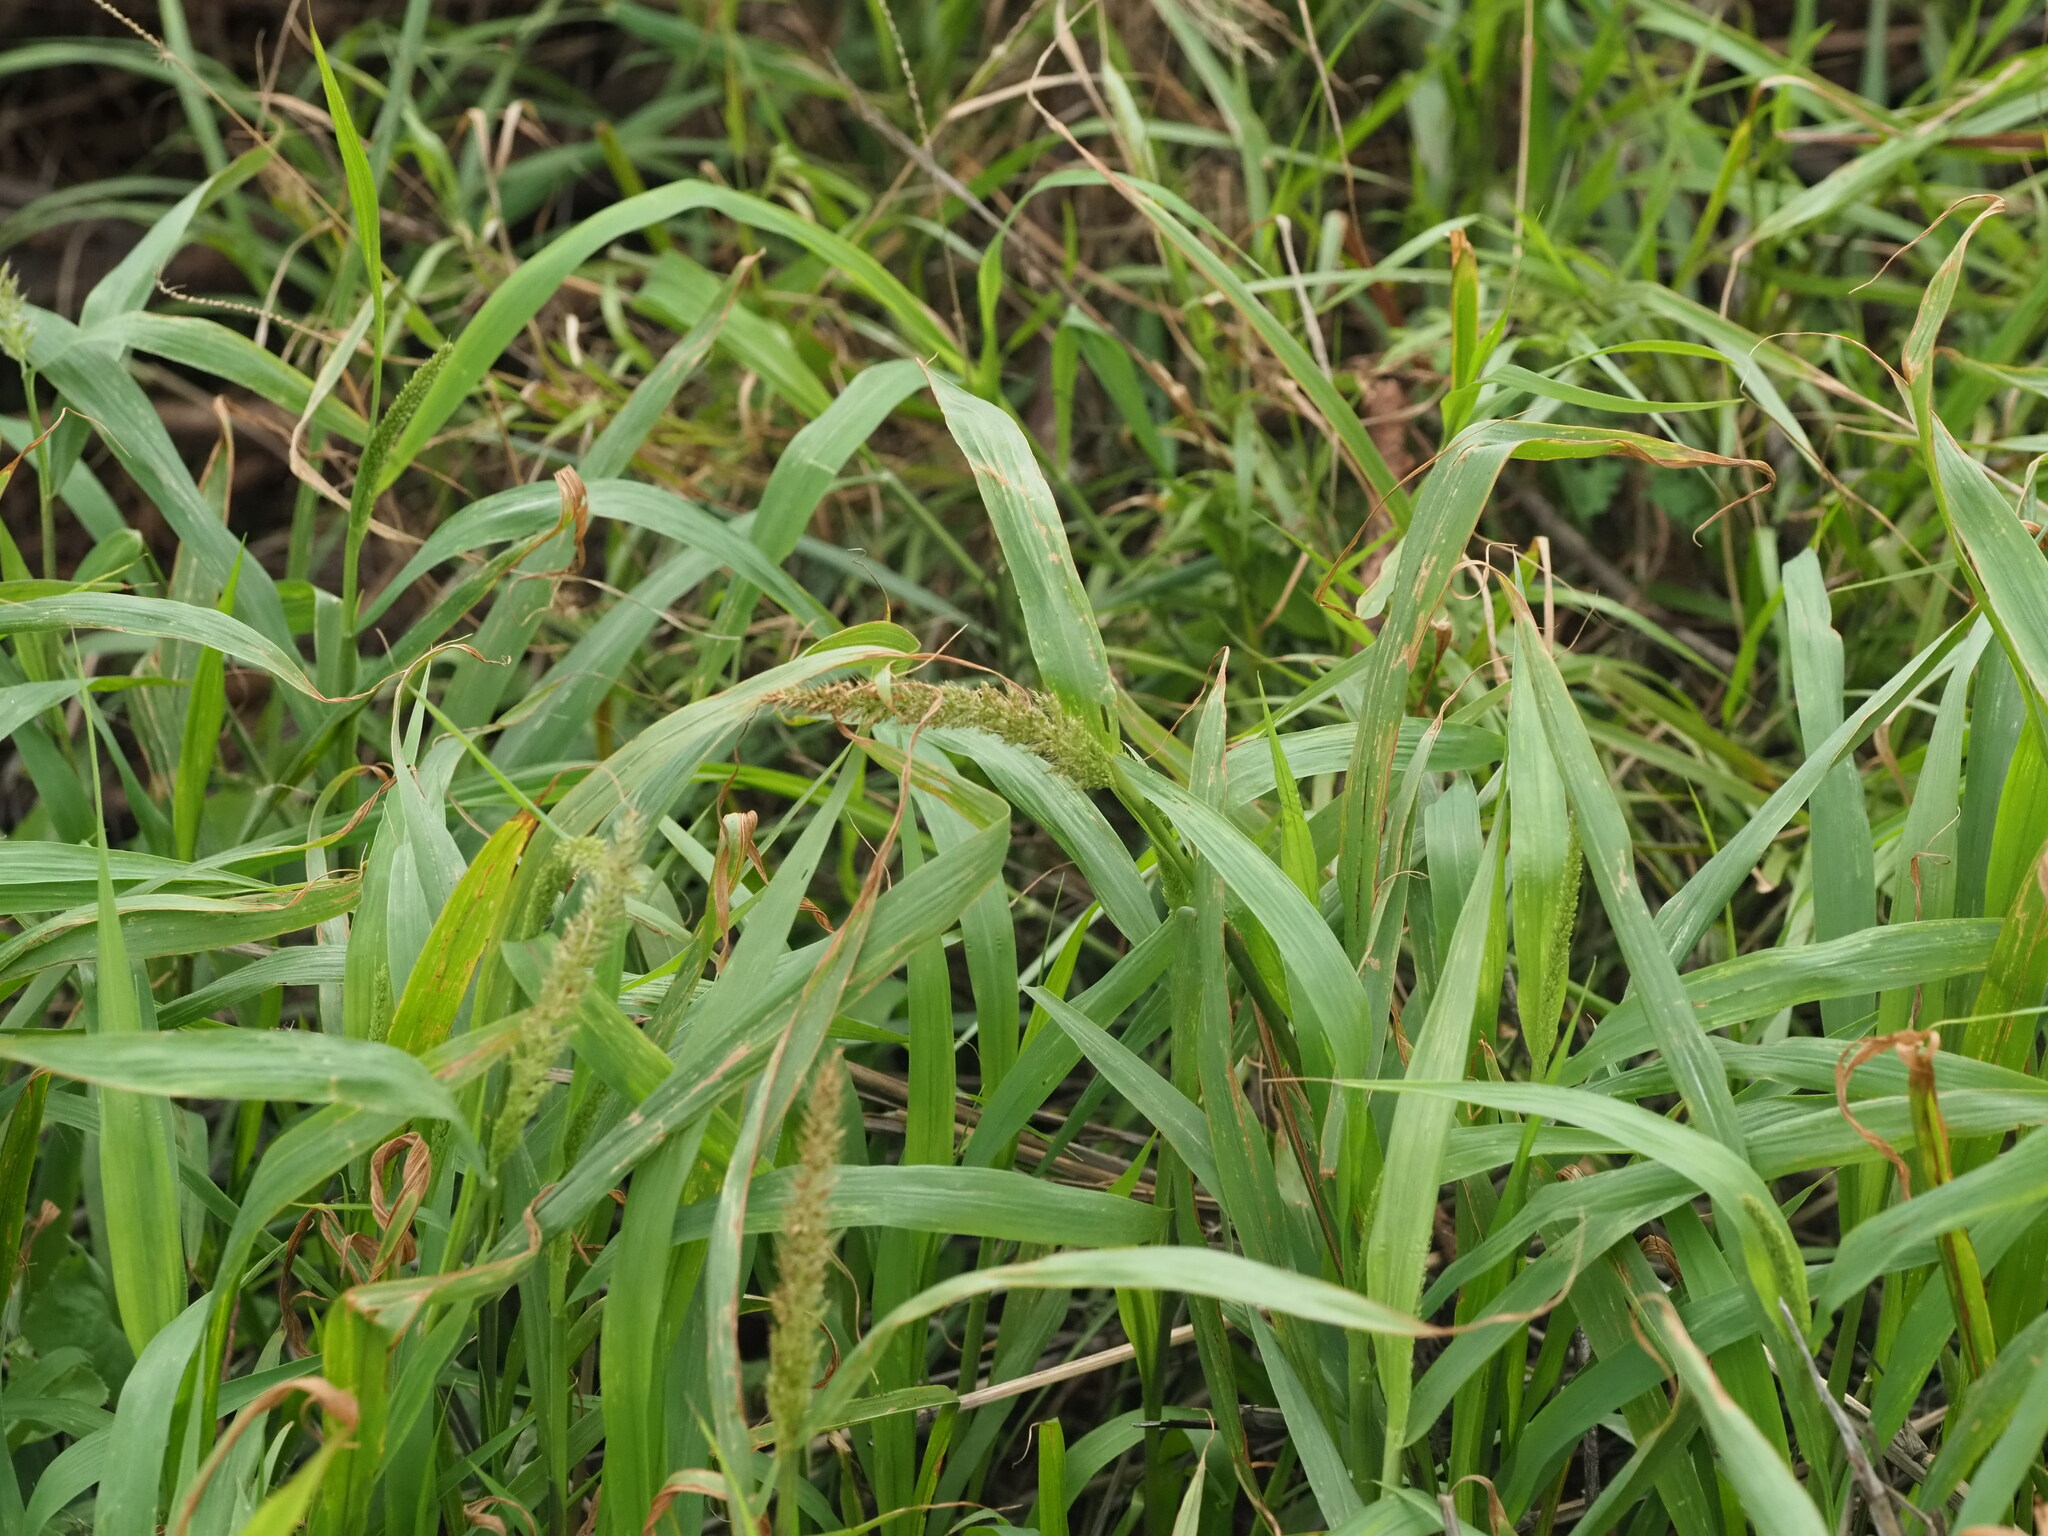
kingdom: Plantae
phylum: Tracheophyta
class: Liliopsida
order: Poales
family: Poaceae
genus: Setaria
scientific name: Setaria adhaerens
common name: Adherent bristle-grass
